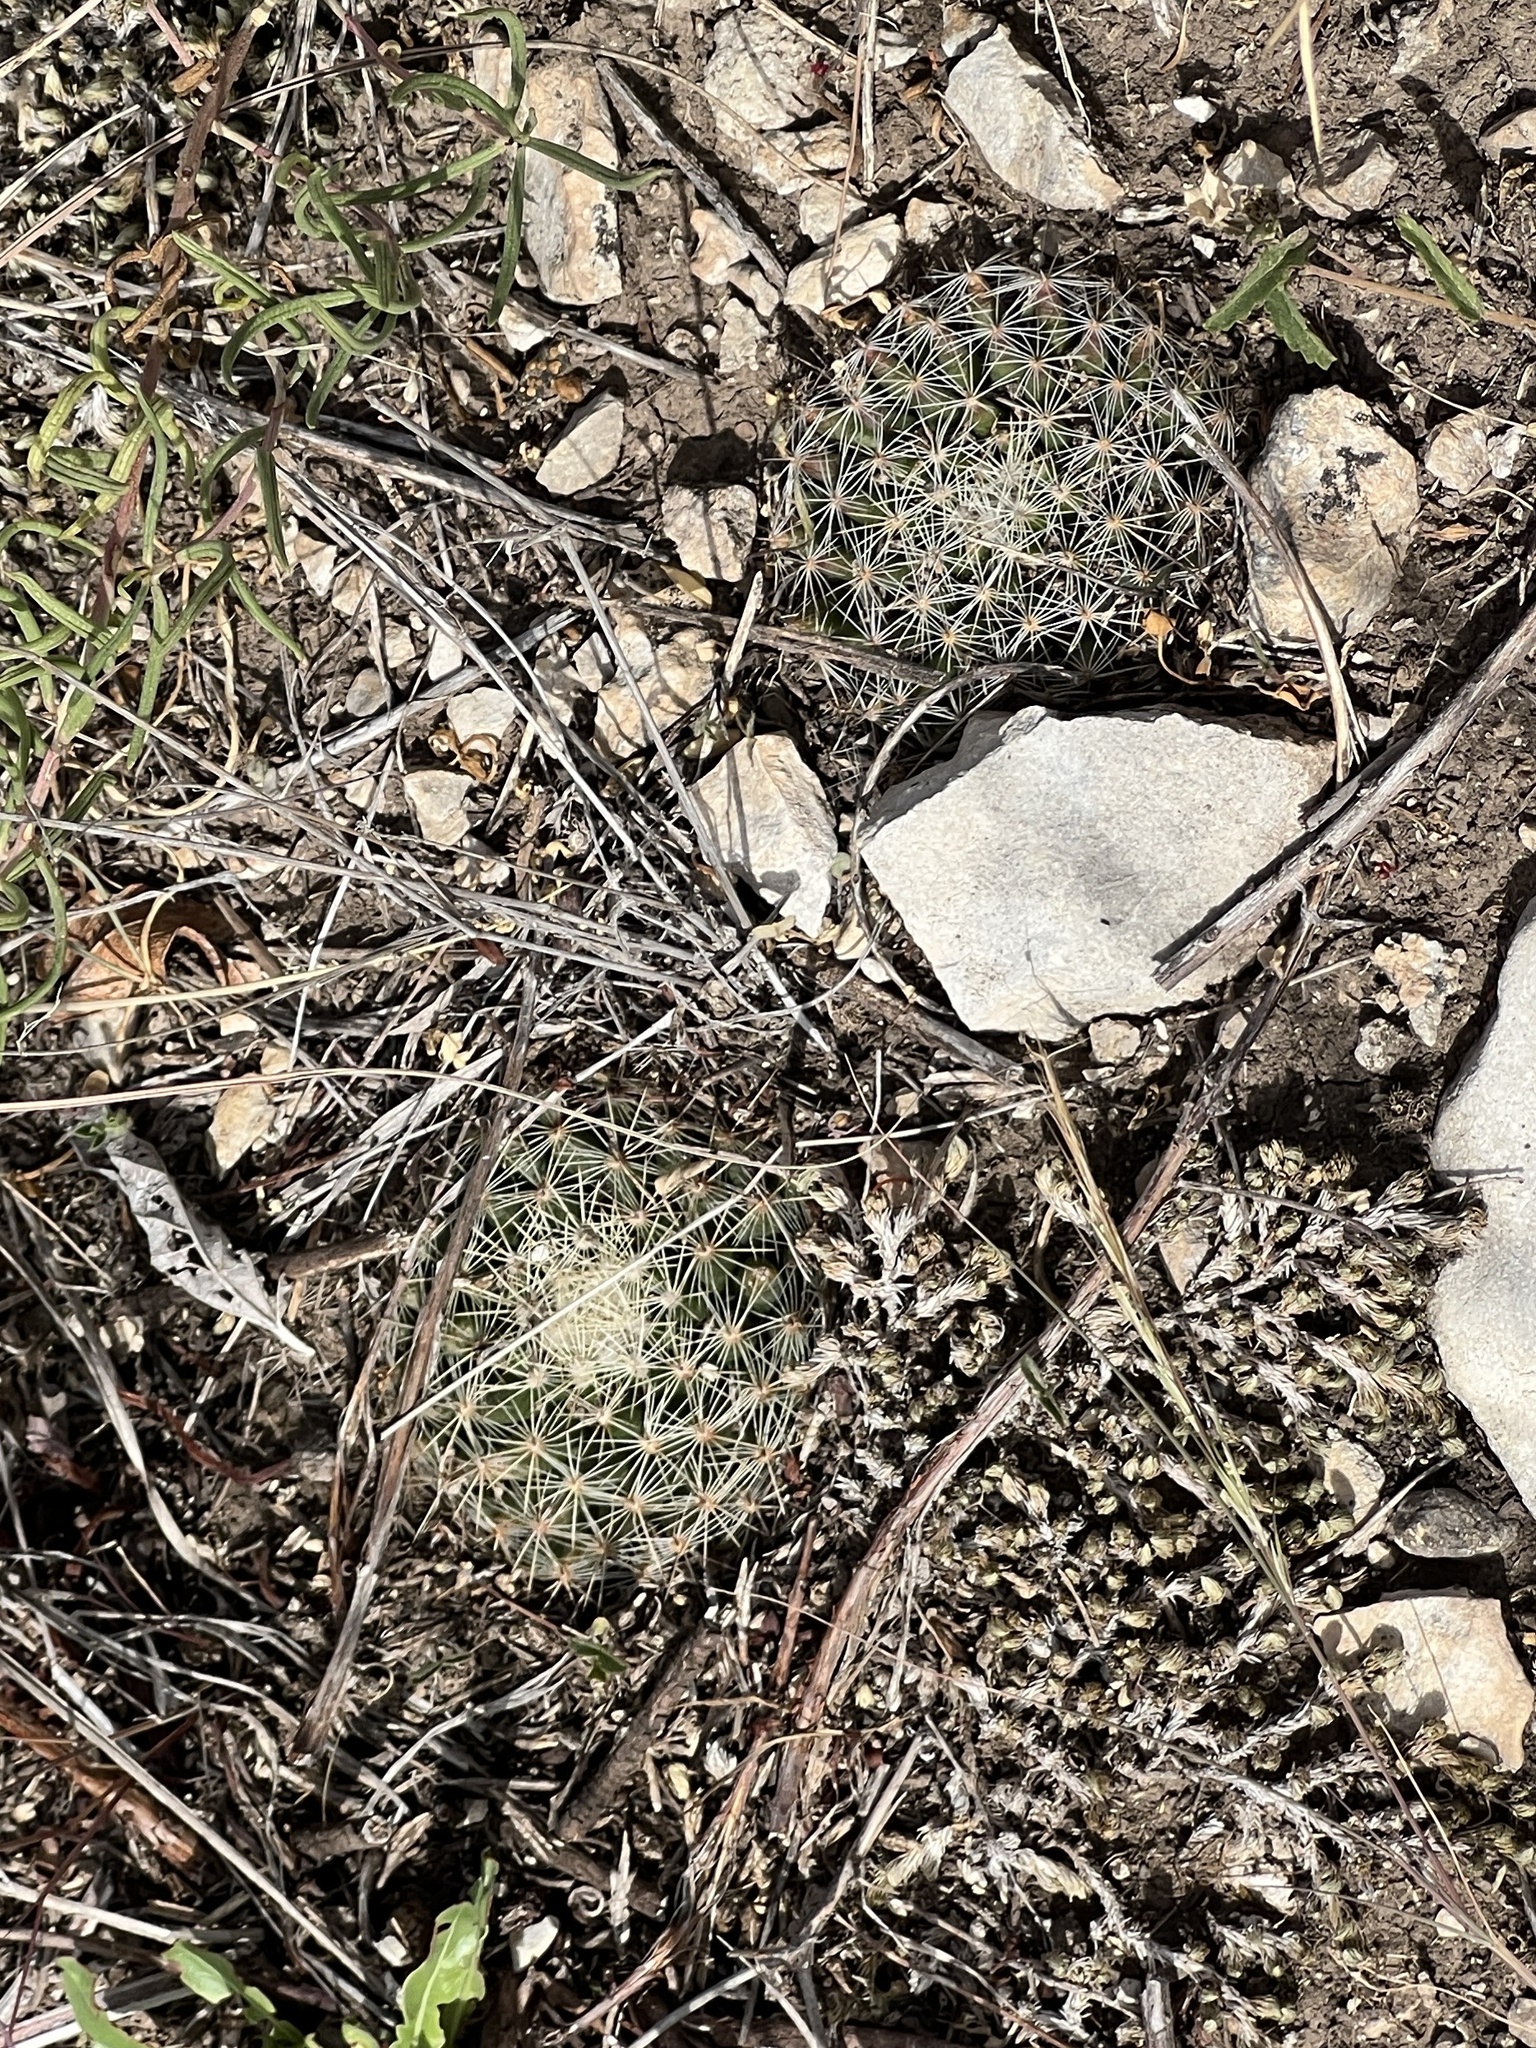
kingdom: Plantae
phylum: Tracheophyta
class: Magnoliopsida
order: Caryophyllales
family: Cactaceae
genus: Mammillaria
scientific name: Mammillaria heyderi
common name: Little nipple cactus
